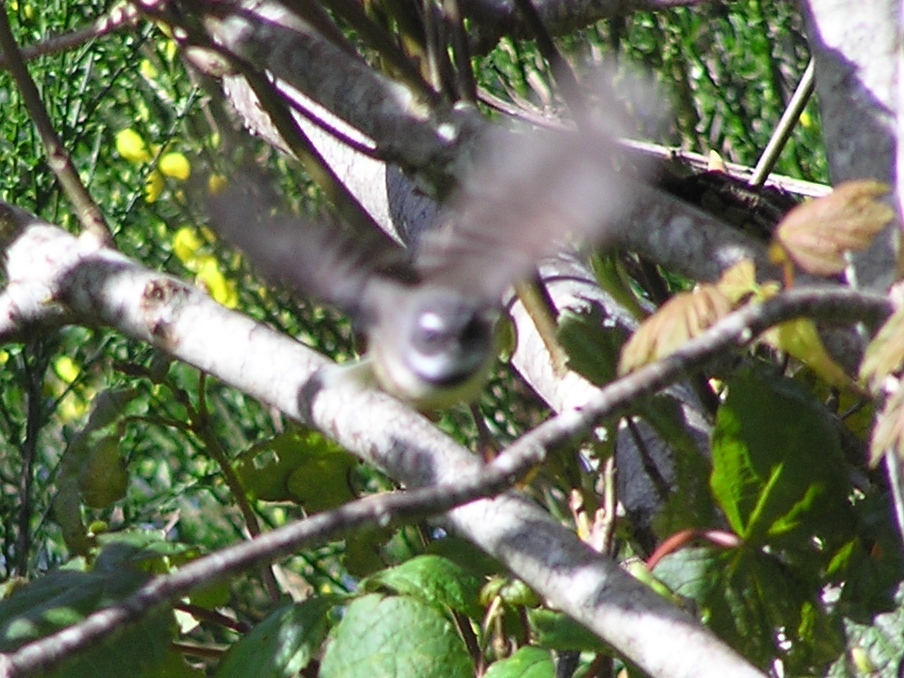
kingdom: Animalia
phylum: Chordata
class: Aves
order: Passeriformes
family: Rhipiduridae
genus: Rhipidura
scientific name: Rhipidura fuliginosa
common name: New zealand fantail
